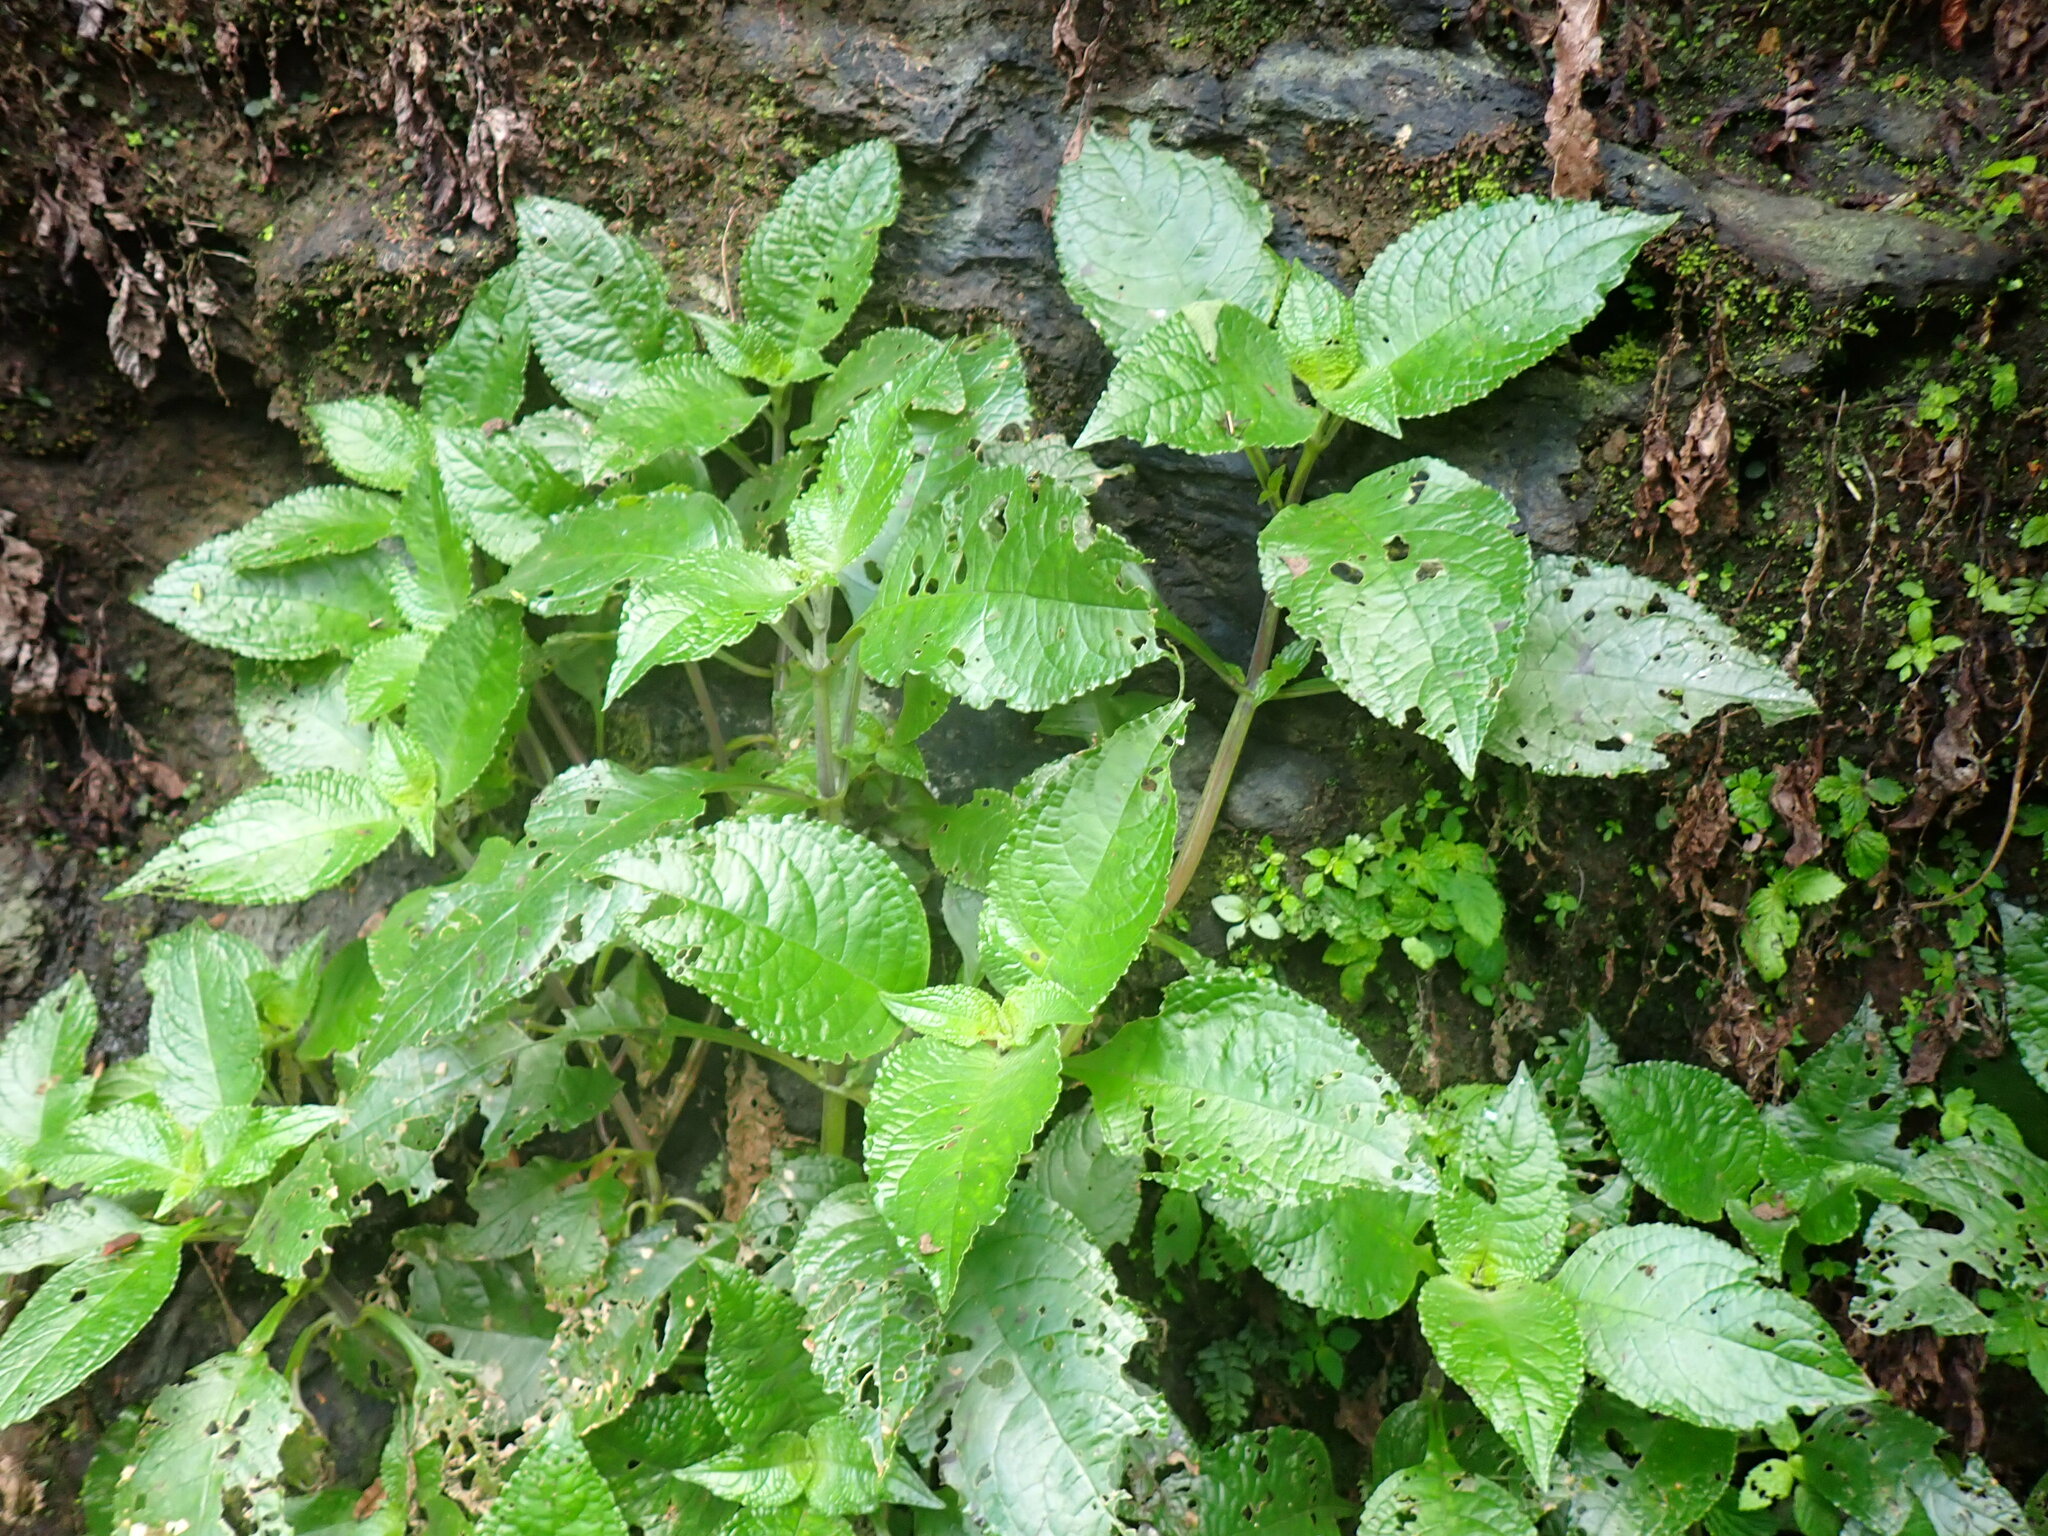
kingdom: Plantae
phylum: Tracheophyta
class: Magnoliopsida
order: Lamiales
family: Gesneriaceae
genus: Nautilocalyx
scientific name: Nautilocalyx mimuloides
